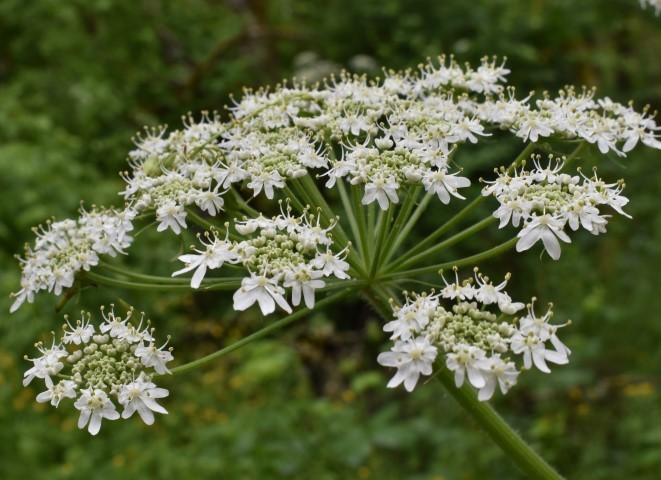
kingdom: Plantae
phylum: Tracheophyta
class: Magnoliopsida
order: Apiales
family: Apiaceae
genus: Heracleum
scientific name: Heracleum maximum
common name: American cow parsnip
